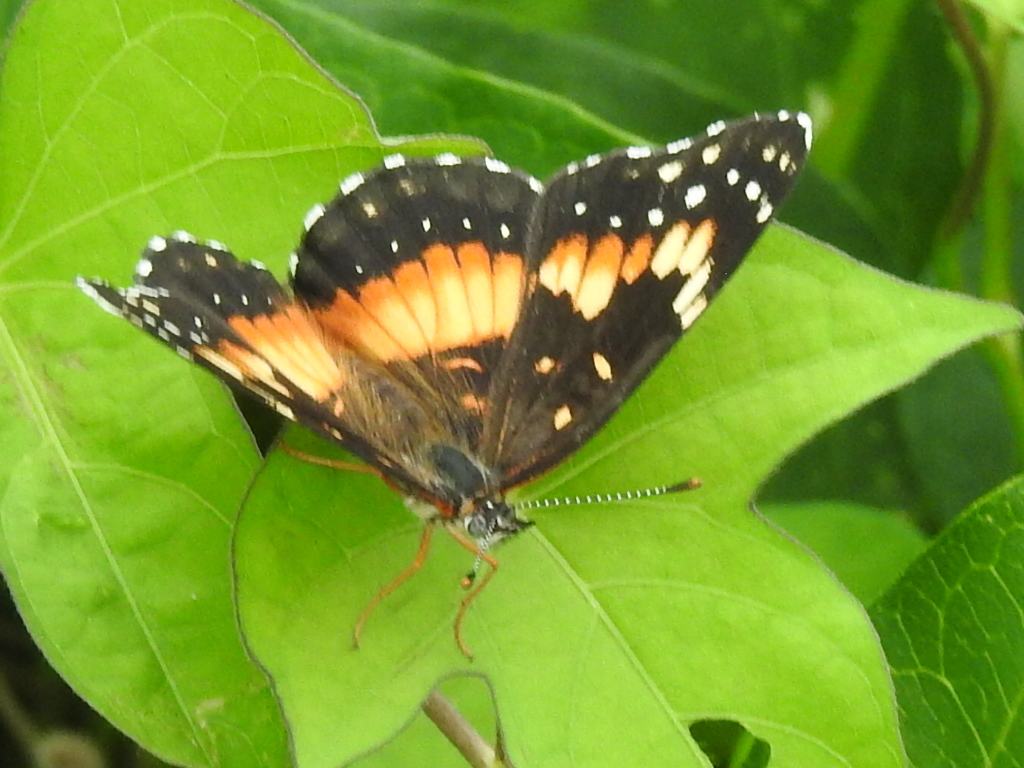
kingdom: Animalia
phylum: Arthropoda
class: Insecta
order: Lepidoptera
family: Nymphalidae
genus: Chlosyne
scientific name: Chlosyne lacinia
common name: Bordered patch
